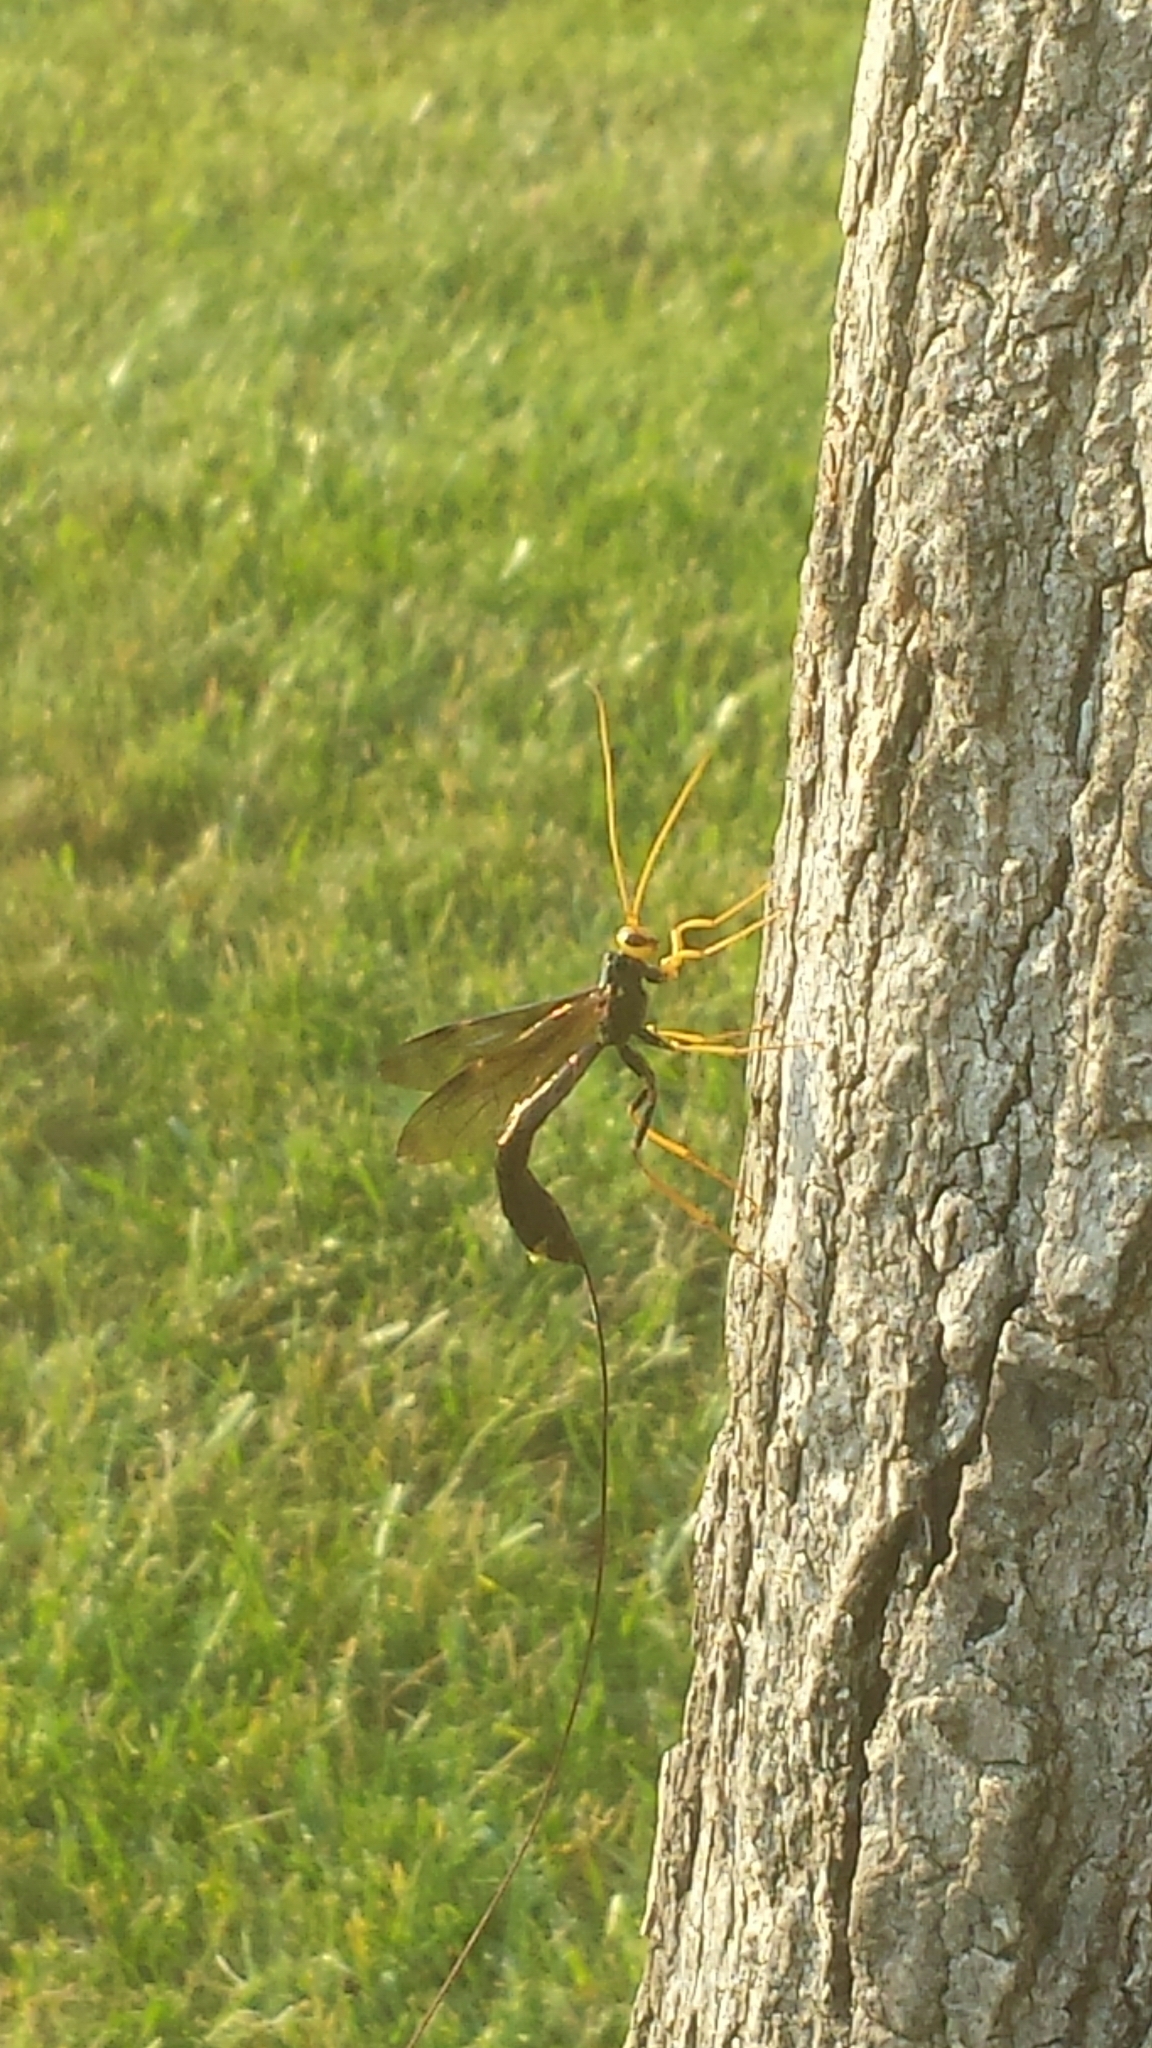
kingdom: Animalia
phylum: Arthropoda
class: Insecta
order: Hymenoptera
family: Ichneumonidae
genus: Megarhyssa
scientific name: Megarhyssa atrata
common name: Black giant ichneumonid wasp
